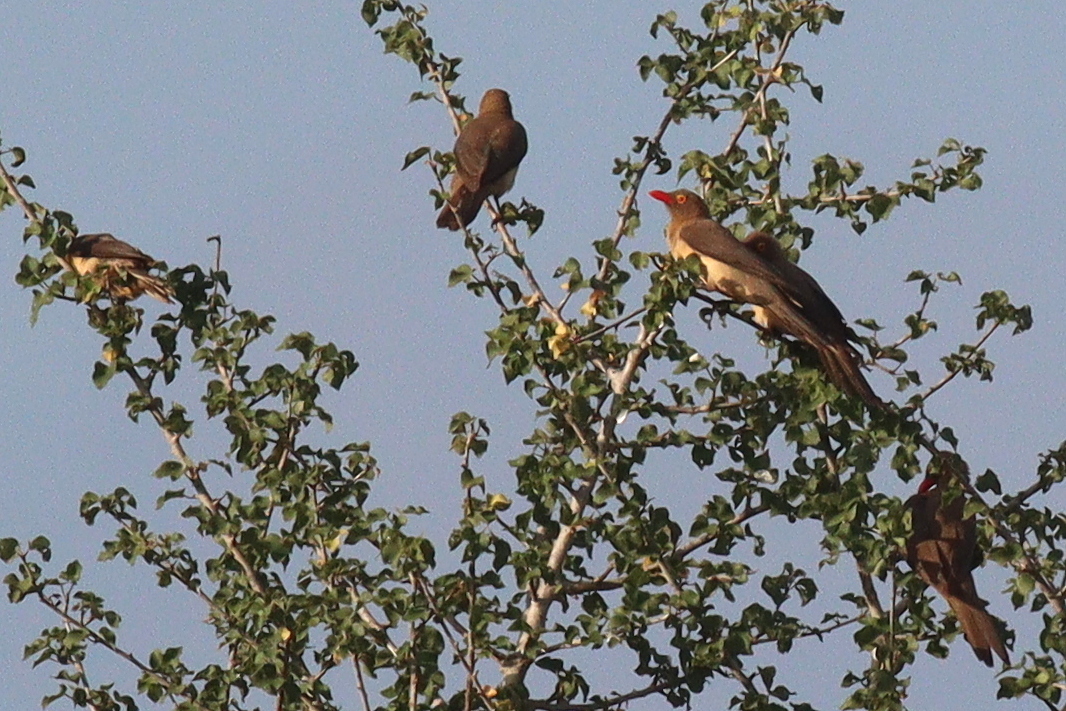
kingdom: Animalia
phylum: Chordata
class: Aves
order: Passeriformes
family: Buphagidae
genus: Buphagus
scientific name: Buphagus erythrorhynchus
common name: Red-billed oxpecker
